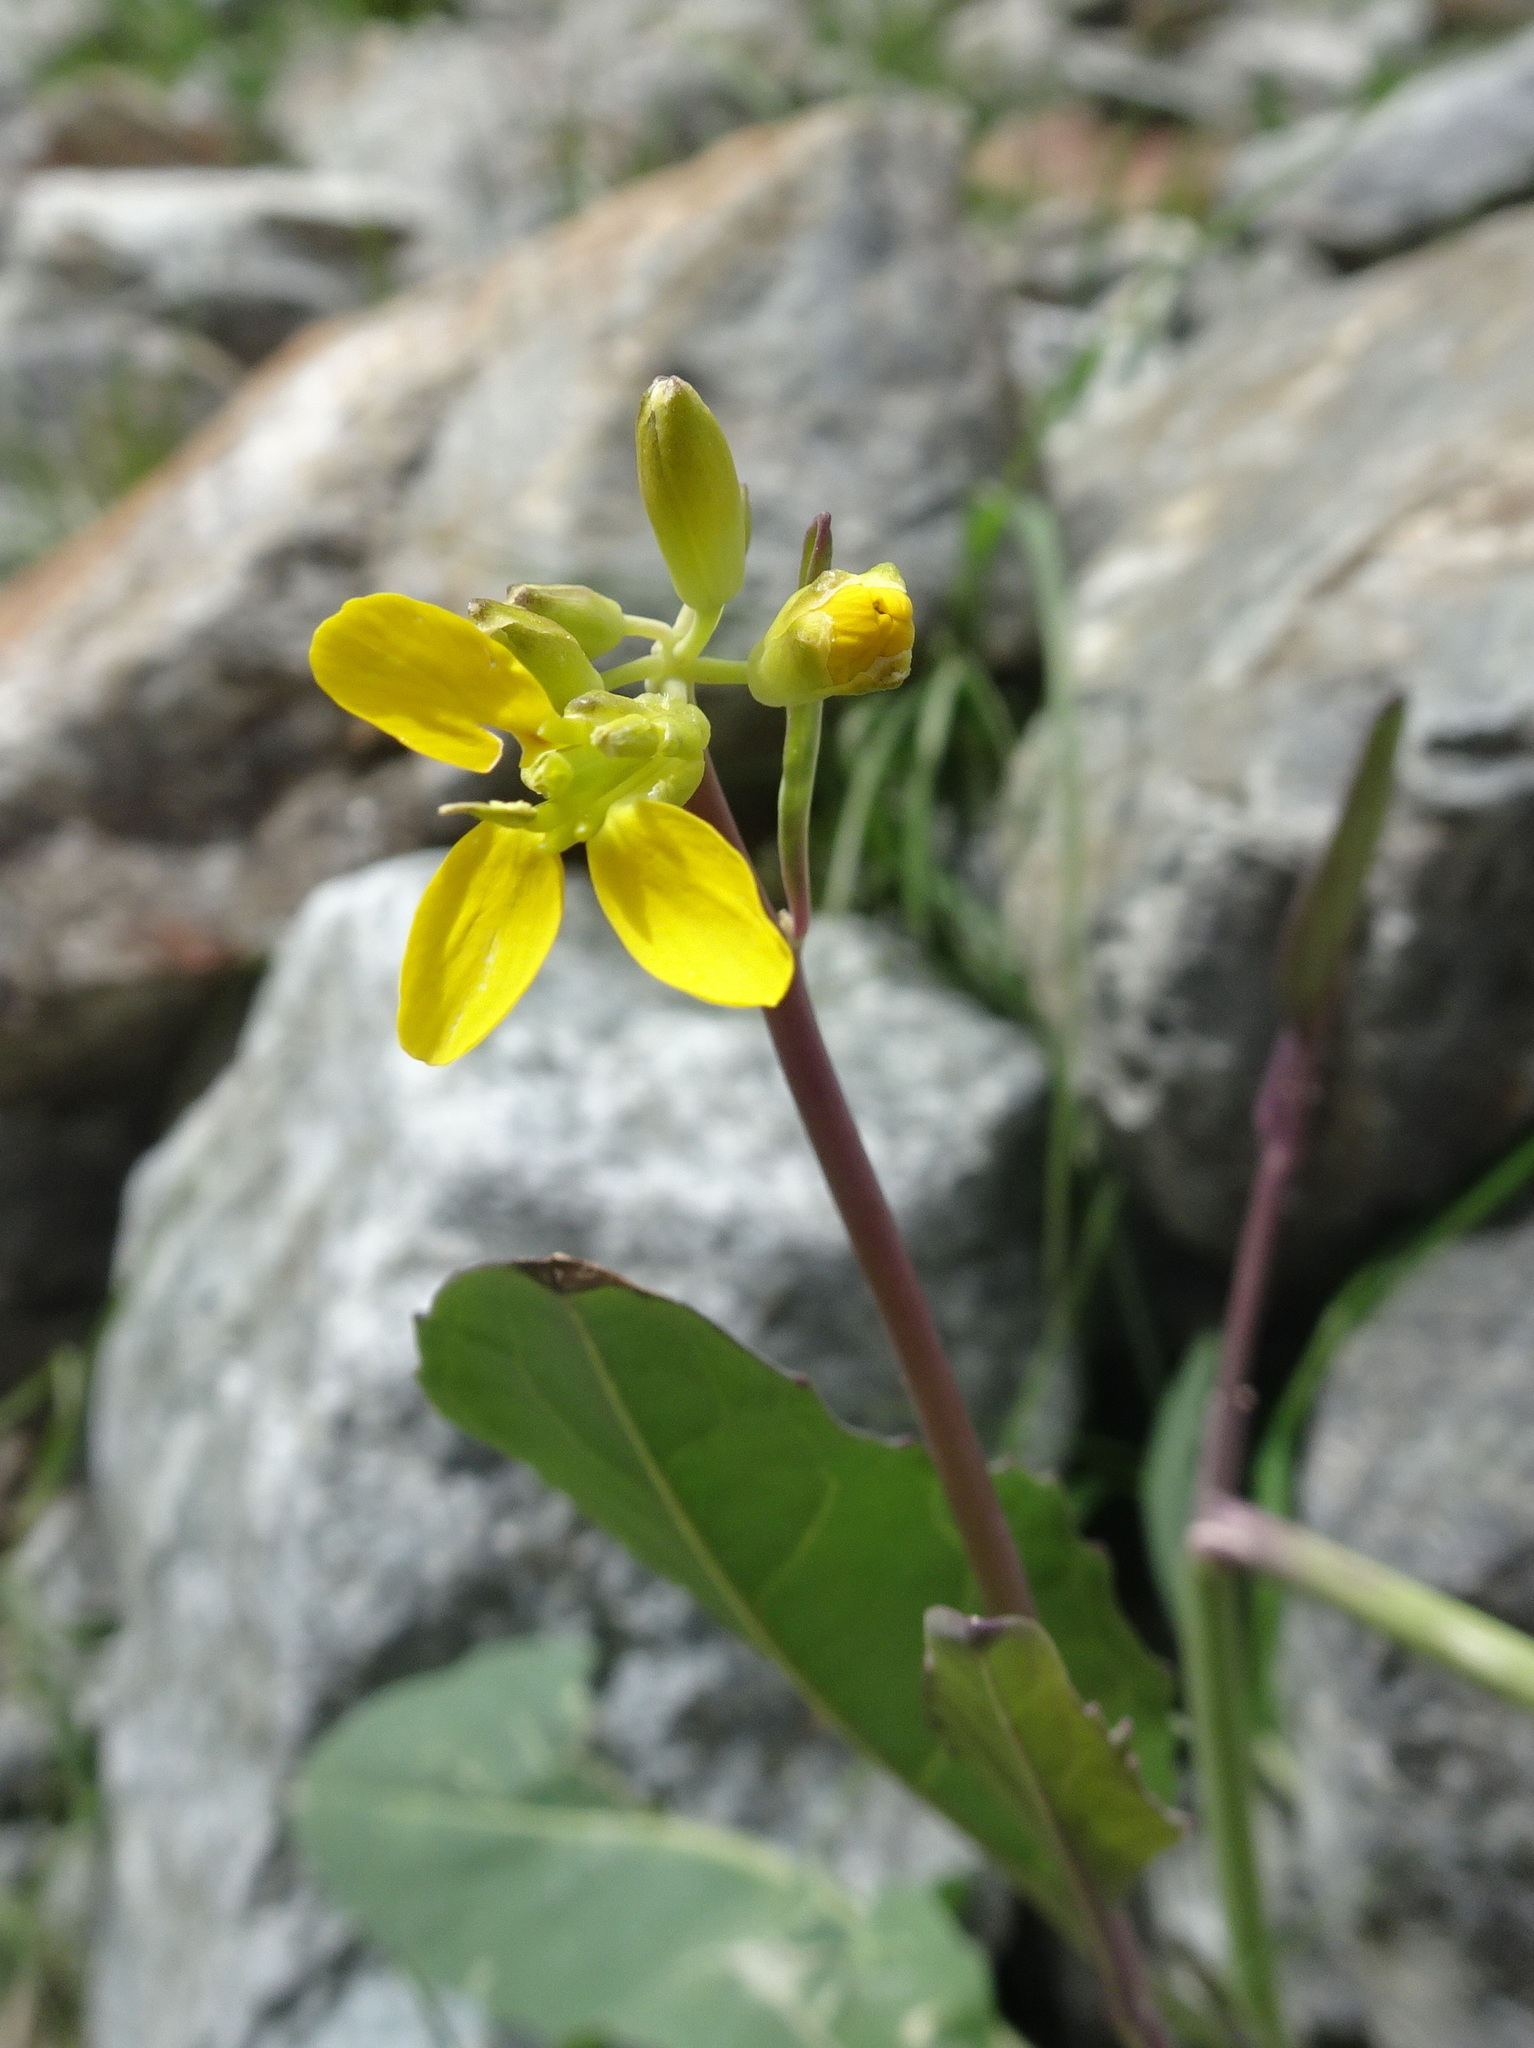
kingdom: Plantae
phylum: Tracheophyta
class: Magnoliopsida
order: Brassicales
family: Brassicaceae
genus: Coincya
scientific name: Coincya richeri
